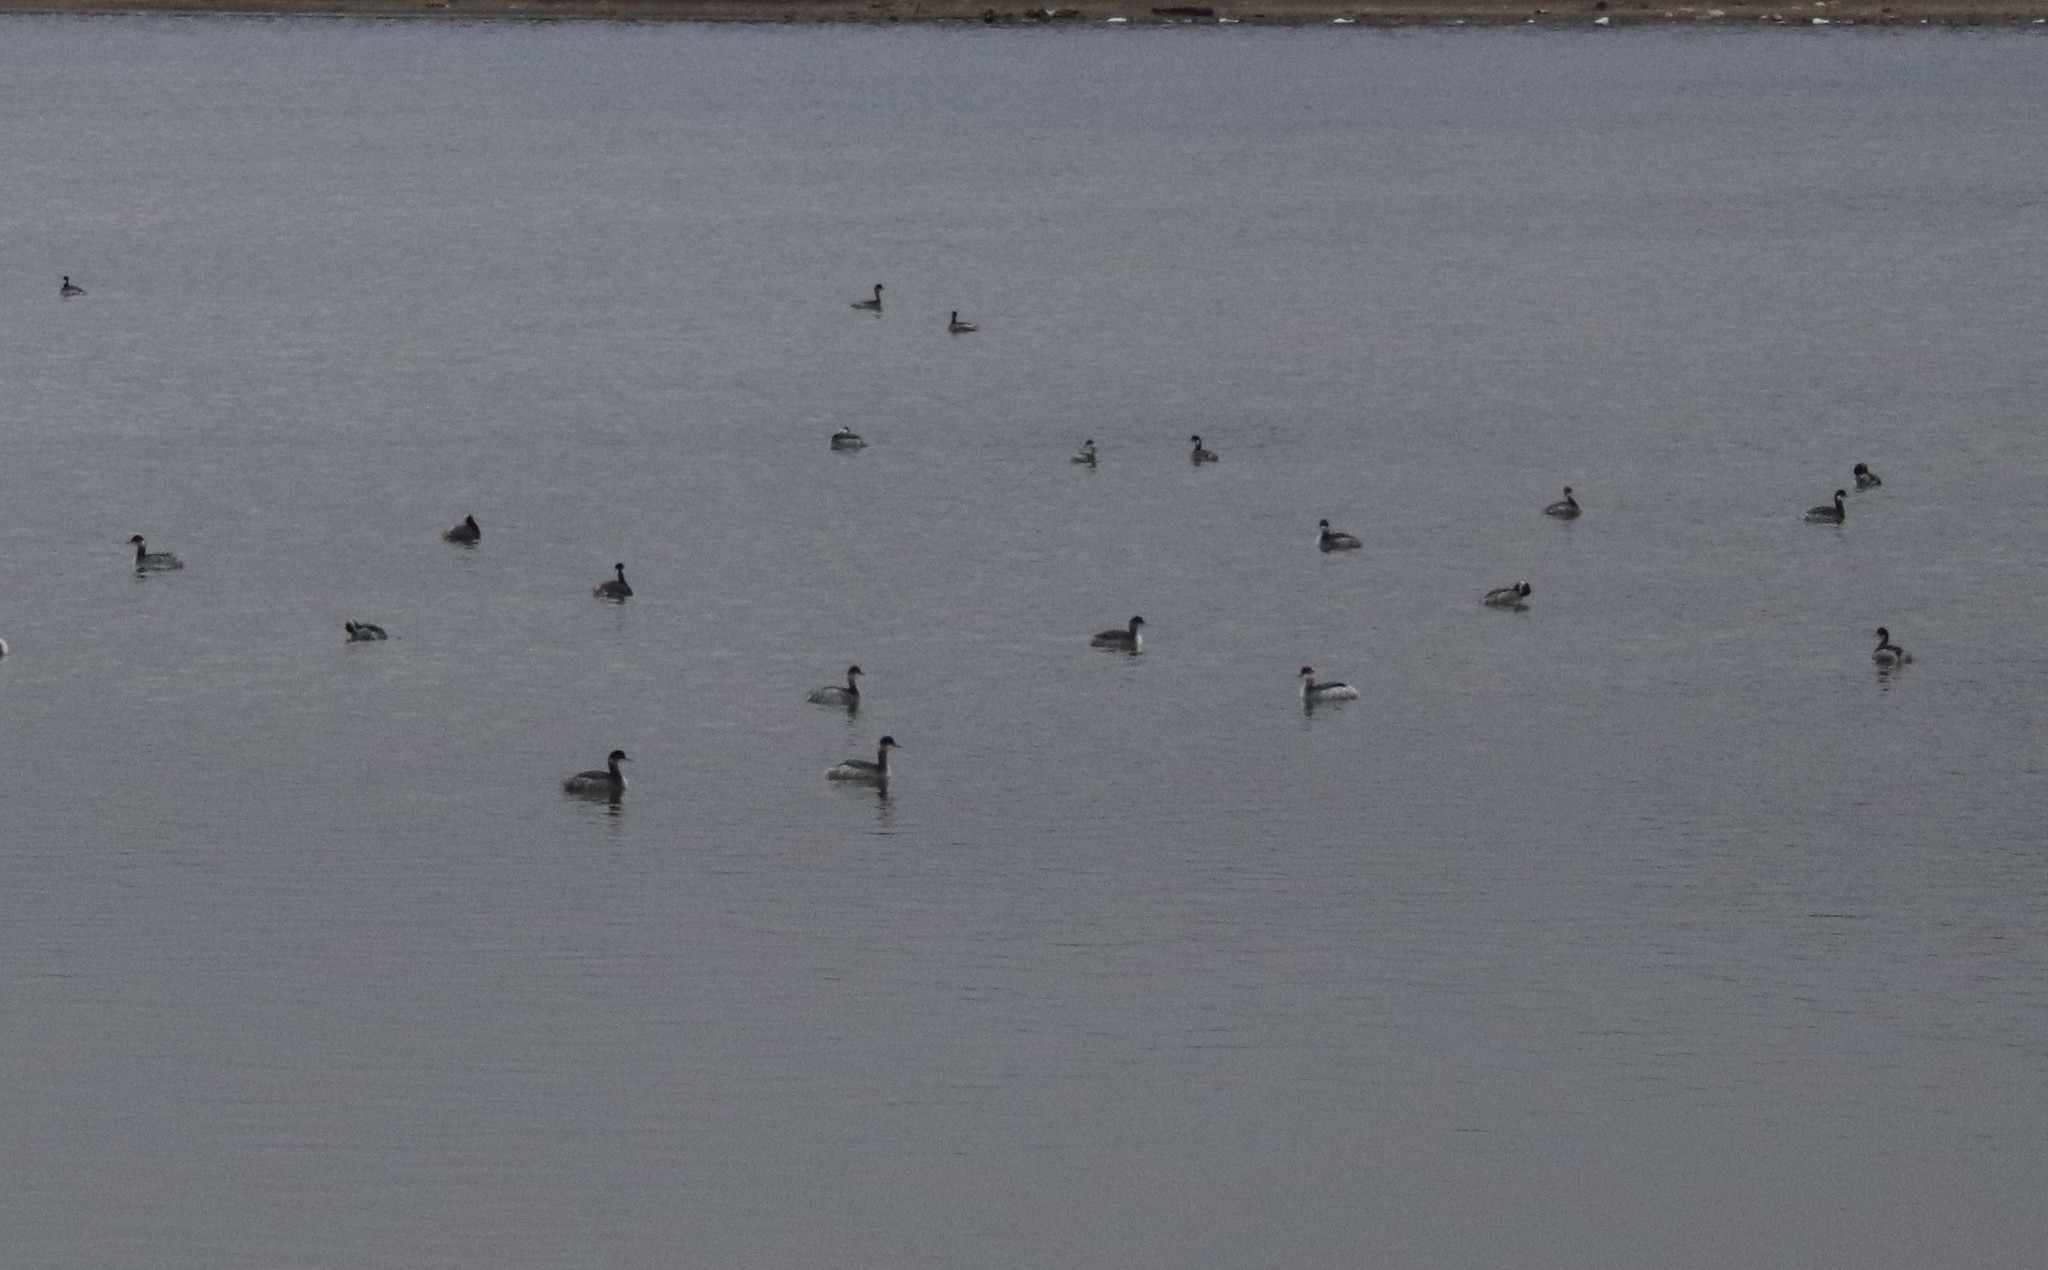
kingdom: Animalia
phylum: Chordata
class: Aves
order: Podicipediformes
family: Podicipedidae
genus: Podiceps
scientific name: Podiceps nigricollis
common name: Black-necked grebe
